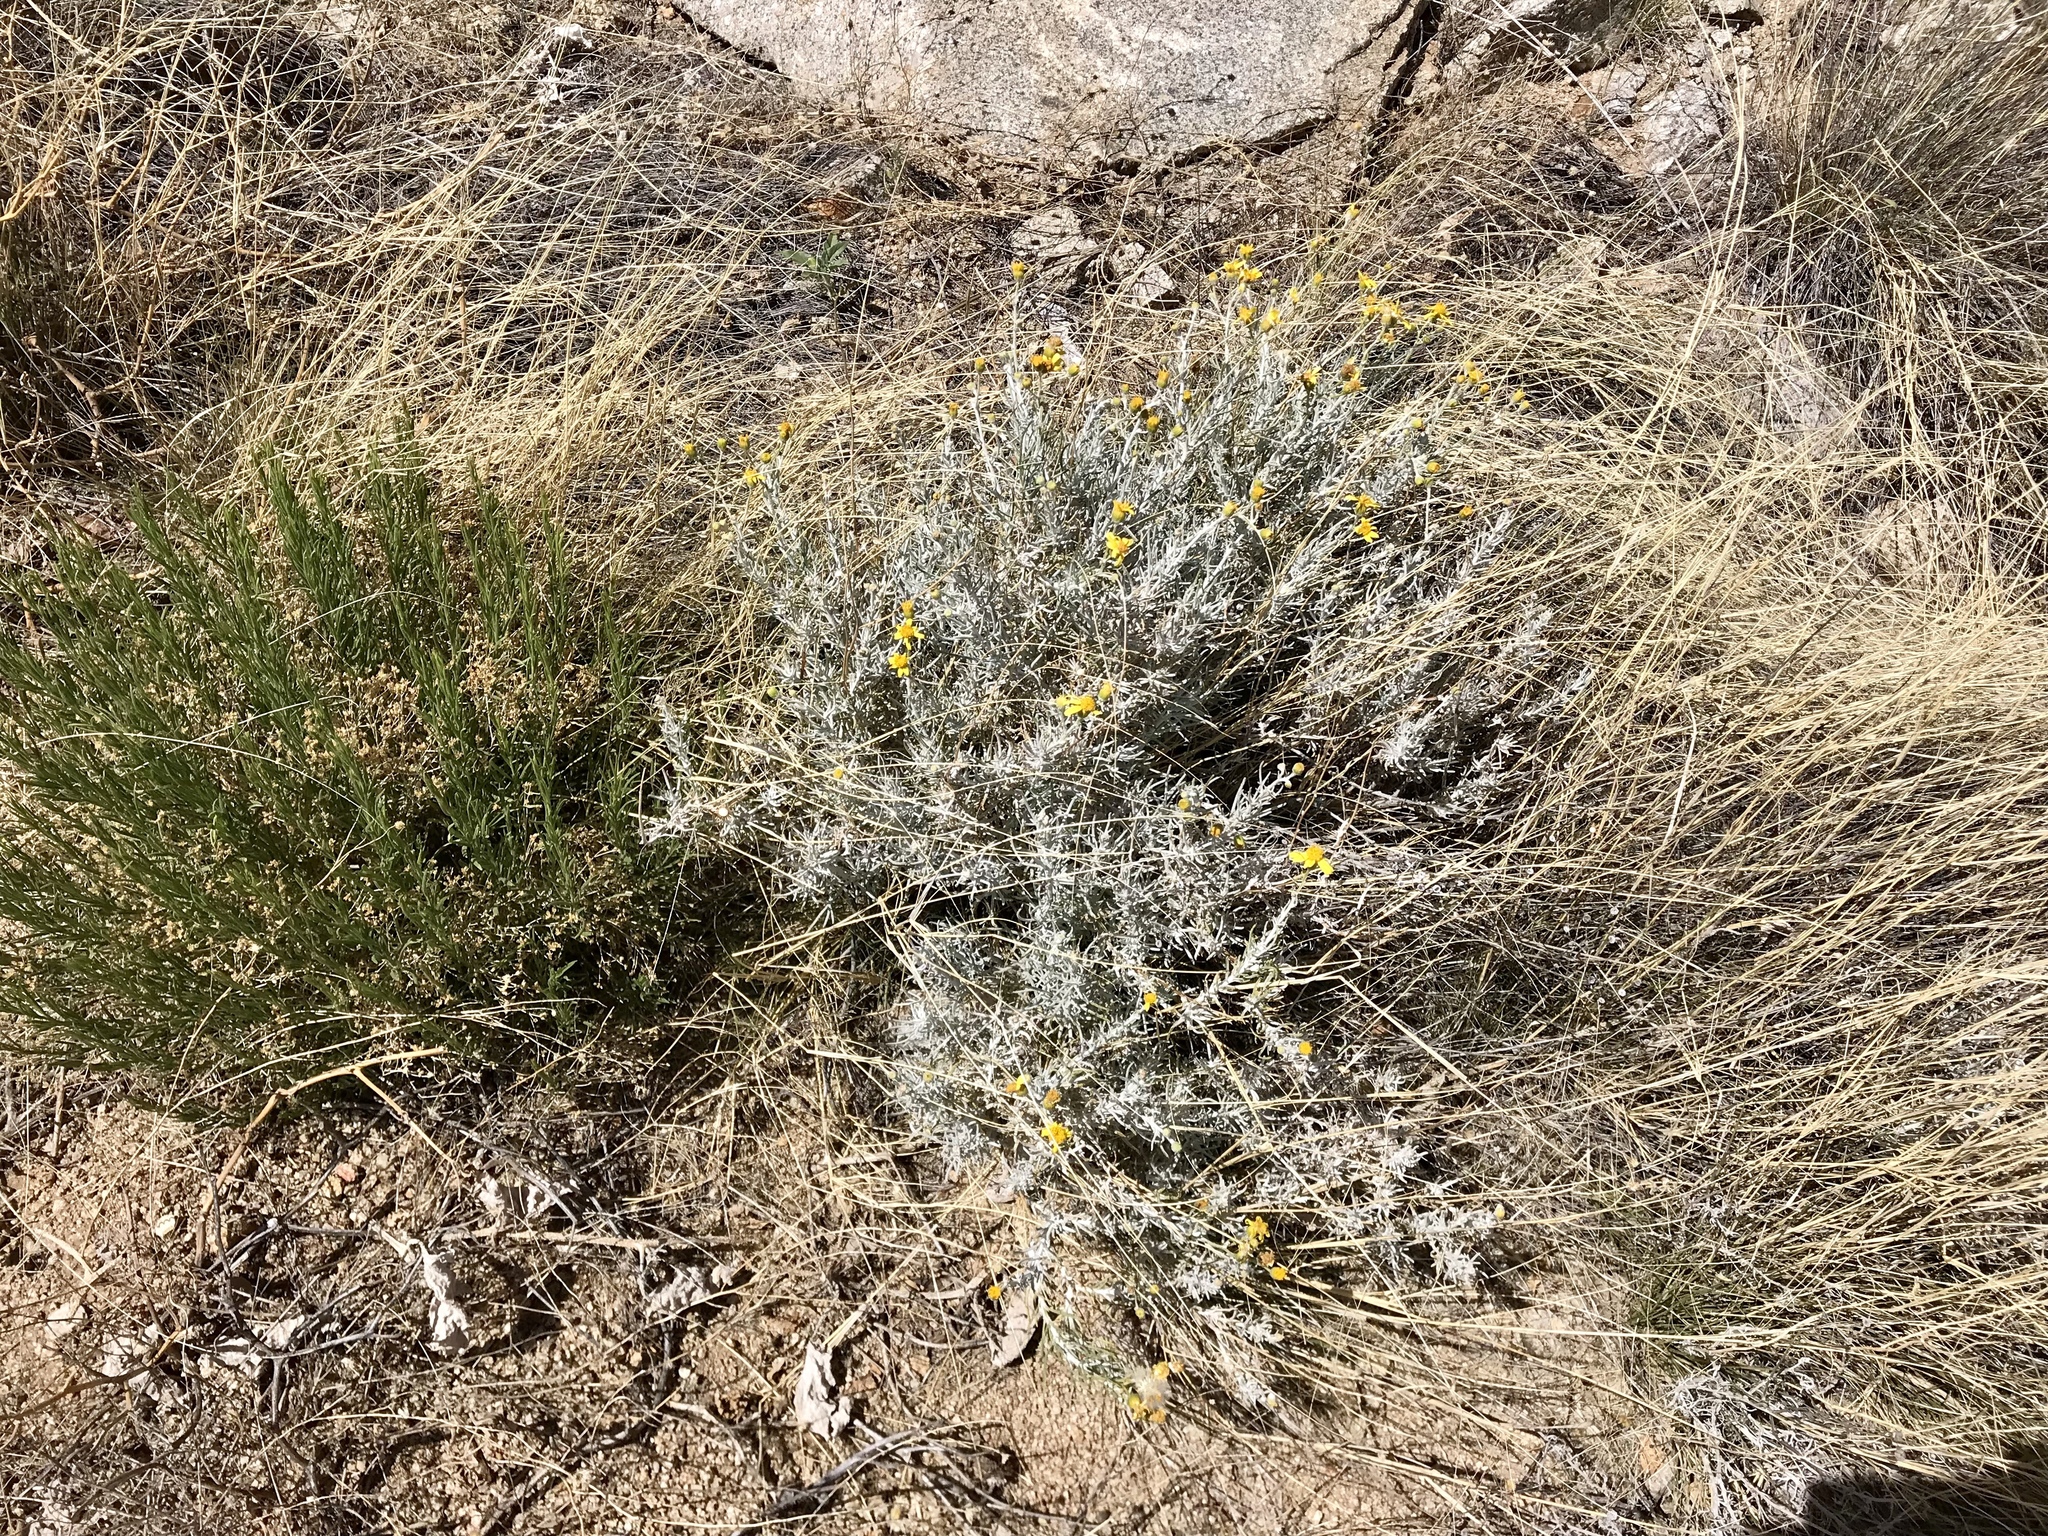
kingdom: Plantae
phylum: Tracheophyta
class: Magnoliopsida
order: Asterales
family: Asteraceae
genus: Senecio
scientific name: Senecio flaccidus
